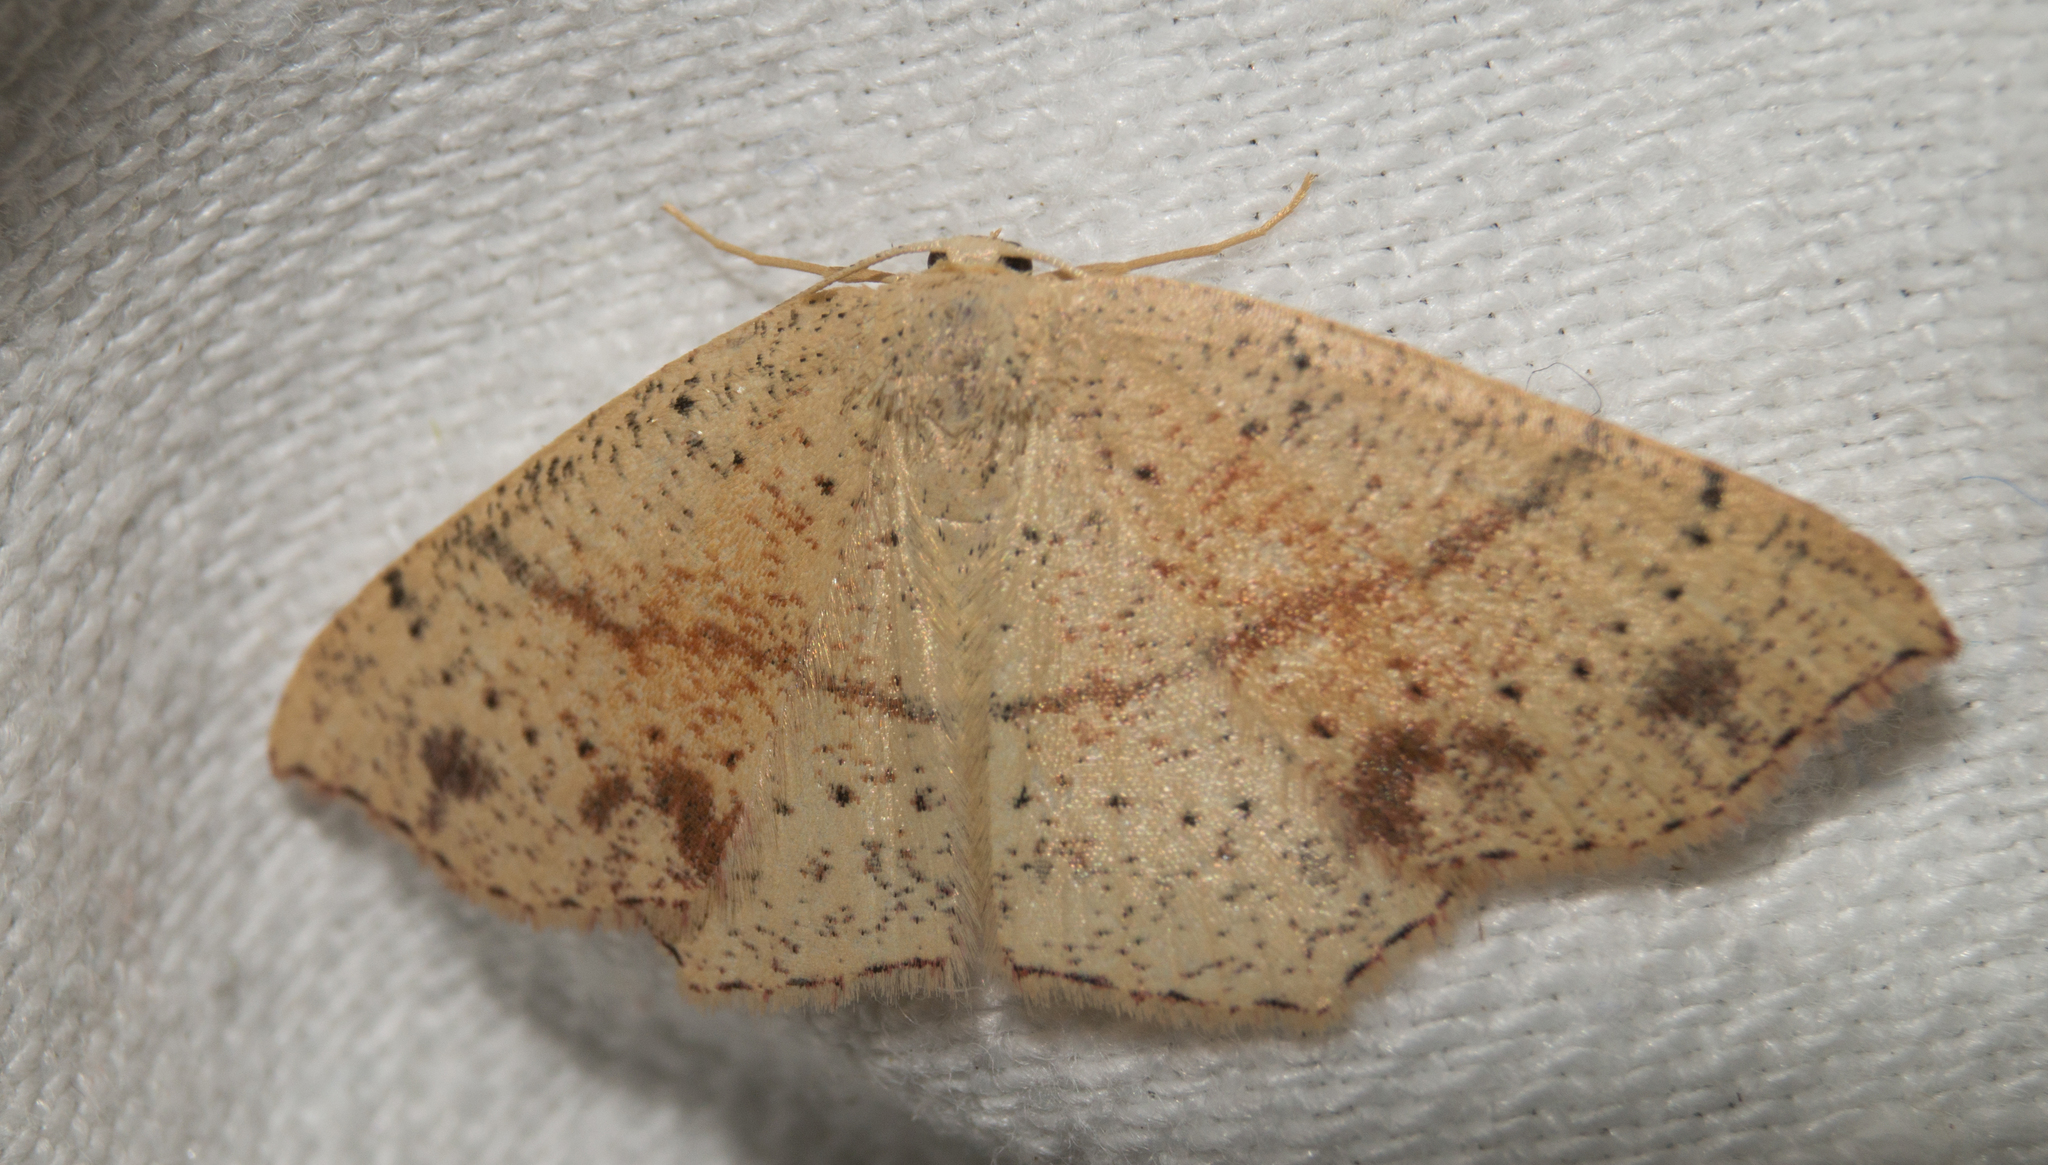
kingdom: Animalia
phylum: Arthropoda
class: Insecta
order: Lepidoptera
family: Geometridae
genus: Cyclophora
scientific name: Cyclophora punctaria
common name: Maiden's blush
